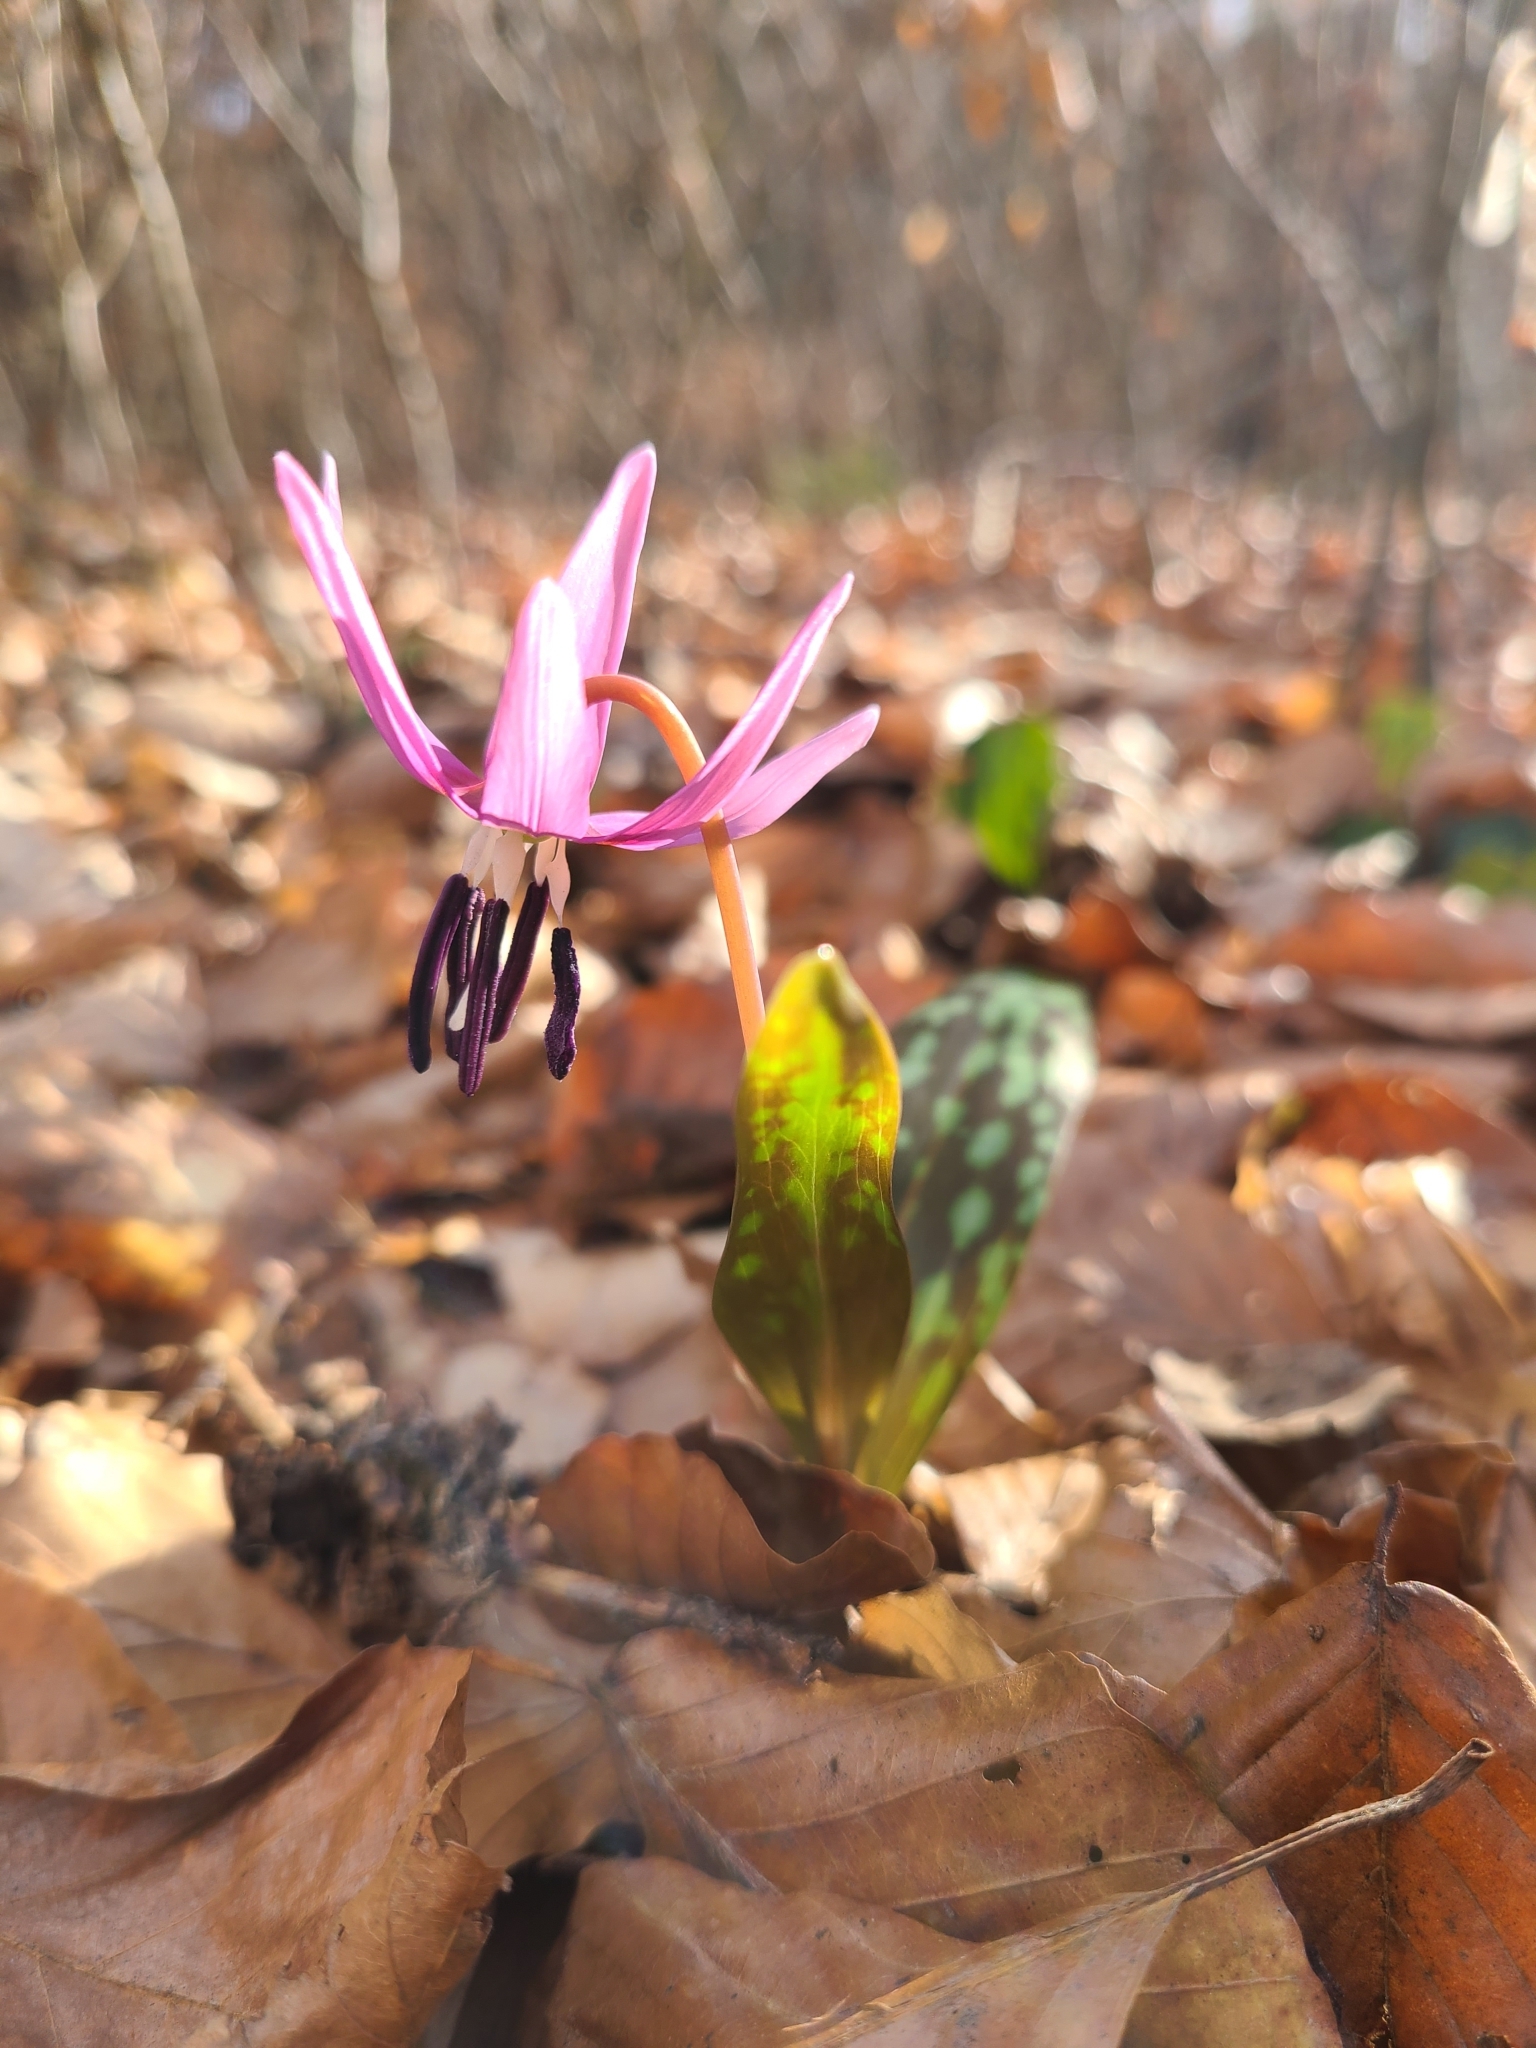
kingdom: Plantae
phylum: Tracheophyta
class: Liliopsida
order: Liliales
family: Liliaceae
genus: Erythronium
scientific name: Erythronium dens-canis
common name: Dog's-tooth-violet
